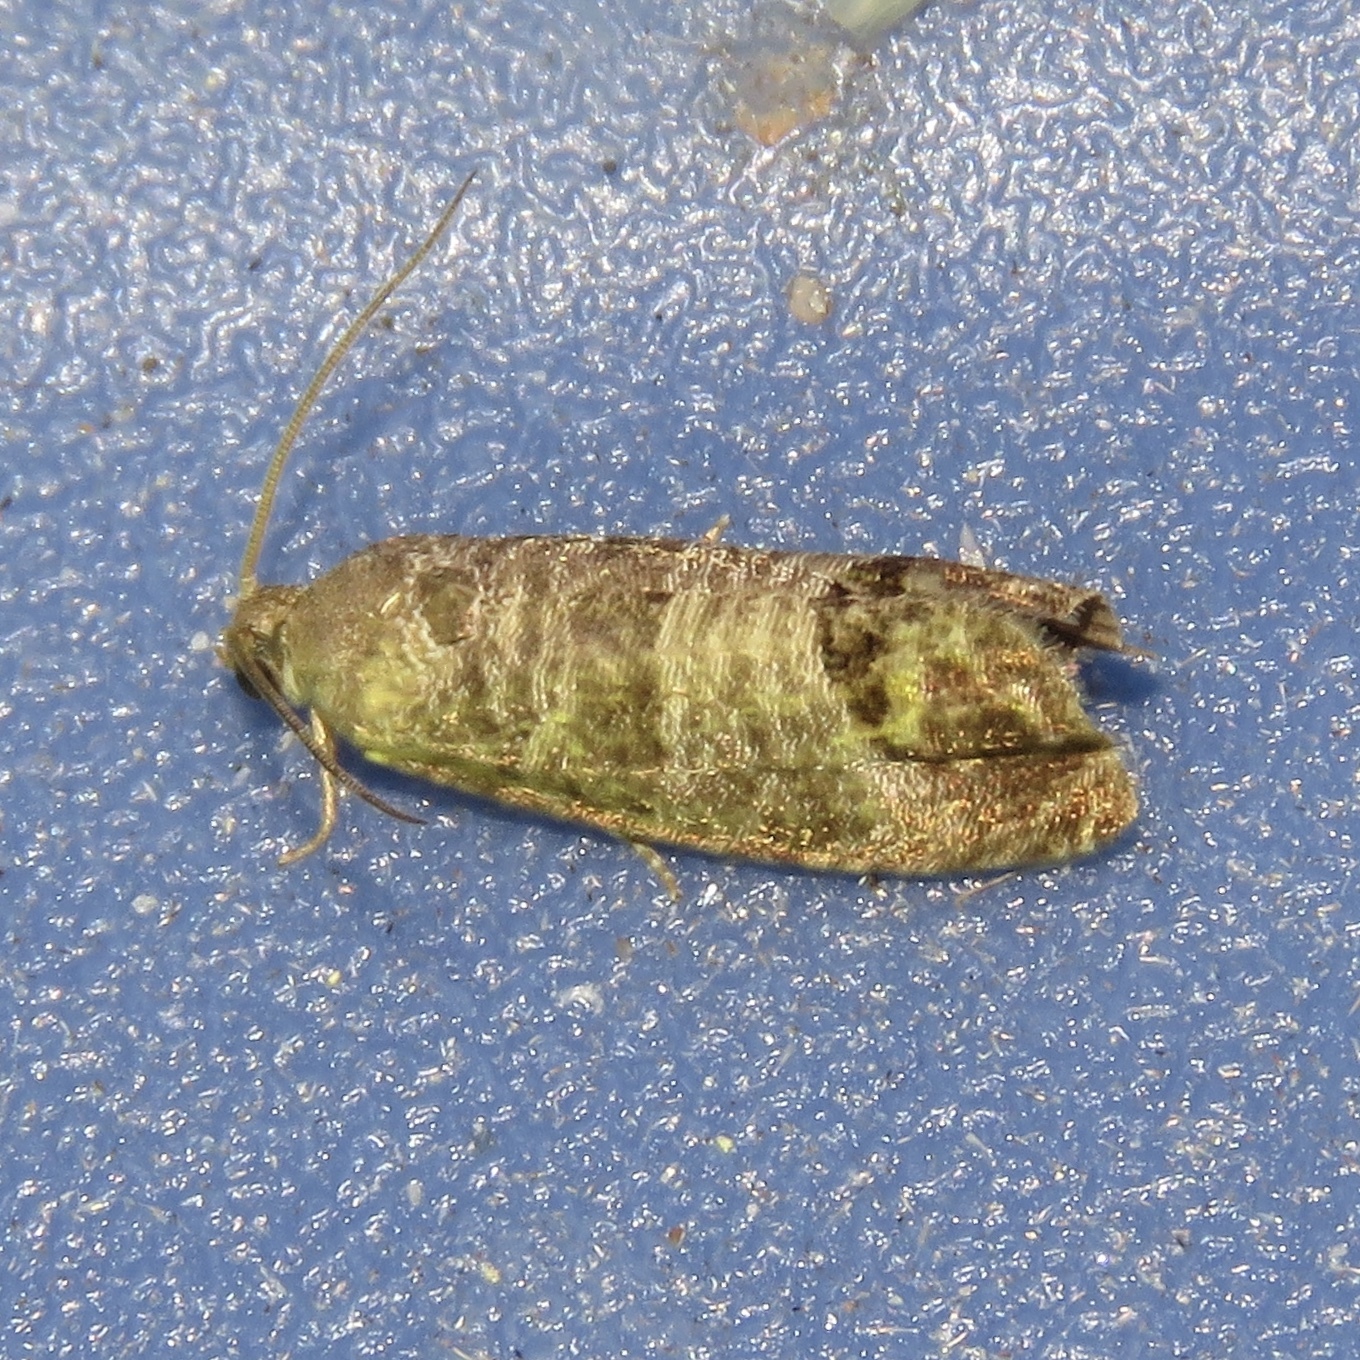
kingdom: Animalia
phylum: Arthropoda
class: Insecta
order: Lepidoptera
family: Tortricidae
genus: Cydia
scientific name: Cydia pomonella
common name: Codling moth
